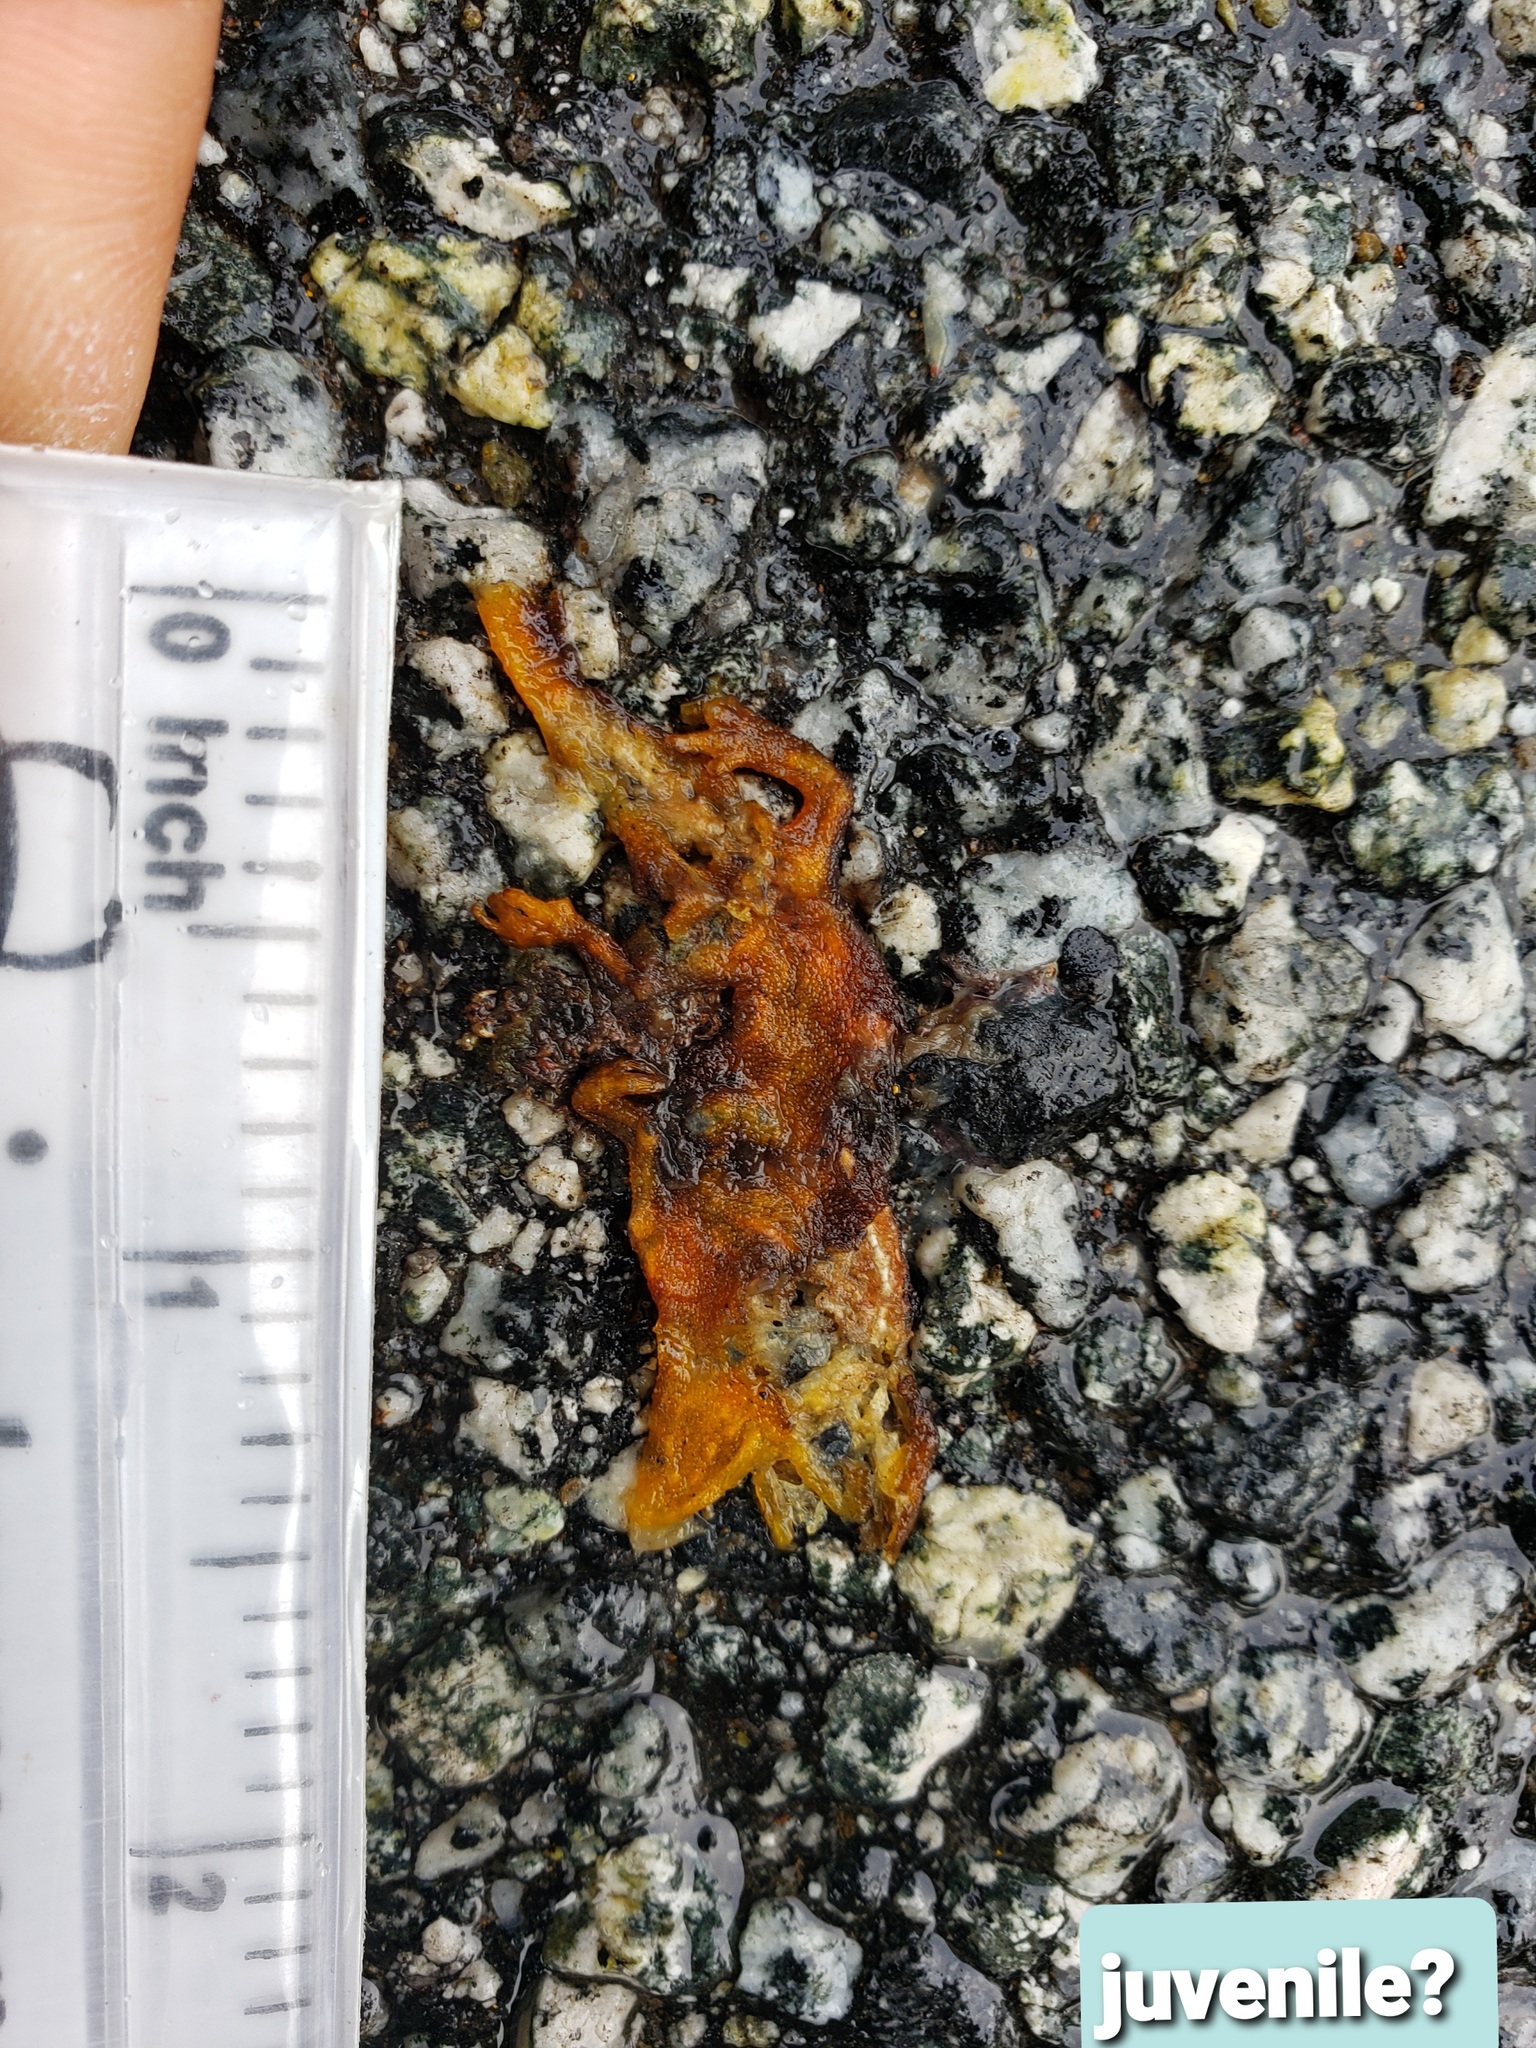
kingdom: Animalia
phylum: Chordata
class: Amphibia
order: Caudata
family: Salamandridae
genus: Taricha
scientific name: Taricha
